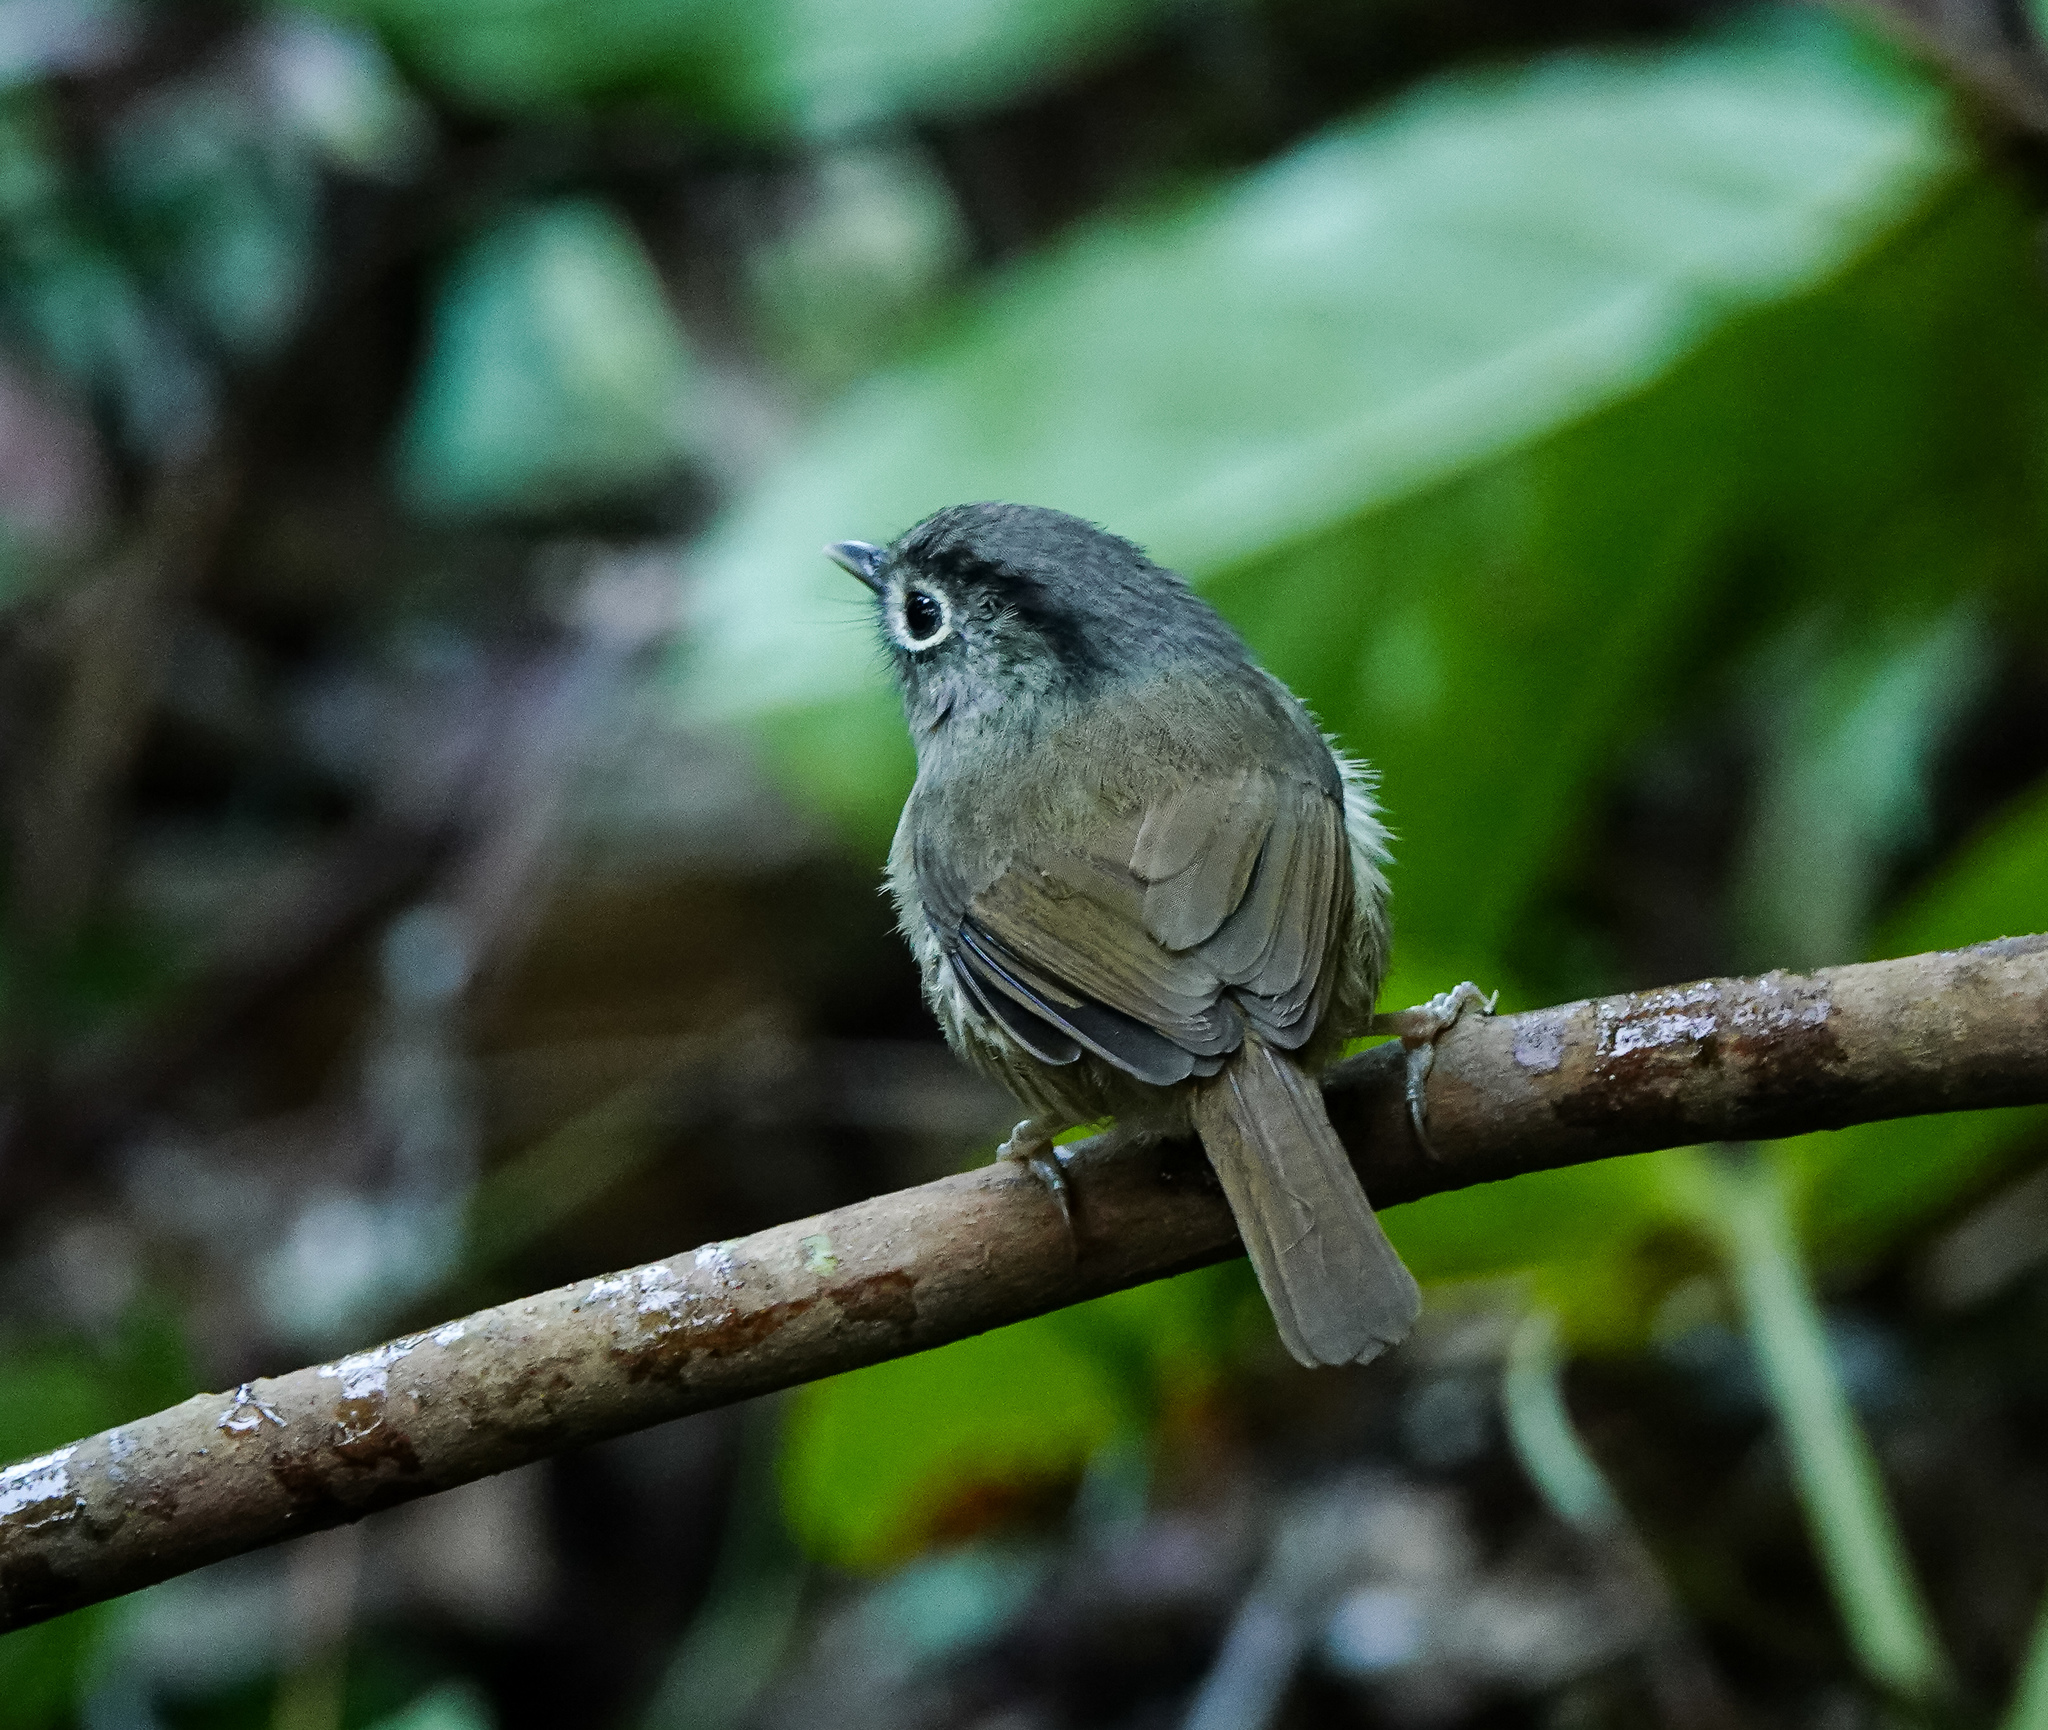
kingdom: Animalia
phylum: Chordata
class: Aves
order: Passeriformes
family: Pellorneidae
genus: Alcippe
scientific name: Alcippe nipalensis
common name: Nepal fulvetta
